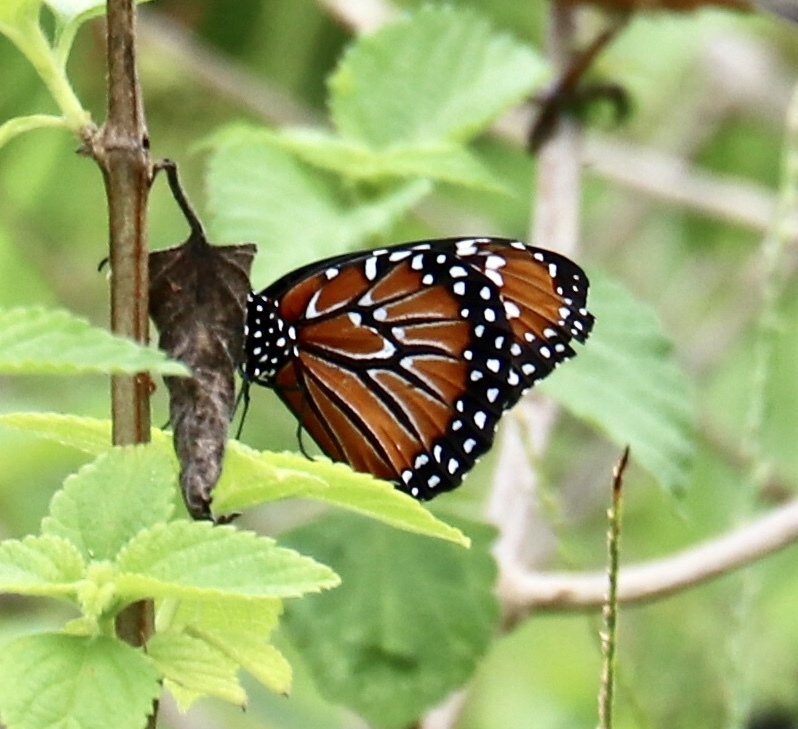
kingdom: Animalia
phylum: Arthropoda
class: Insecta
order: Lepidoptera
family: Nymphalidae
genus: Danaus
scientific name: Danaus gilippus
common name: Queen
